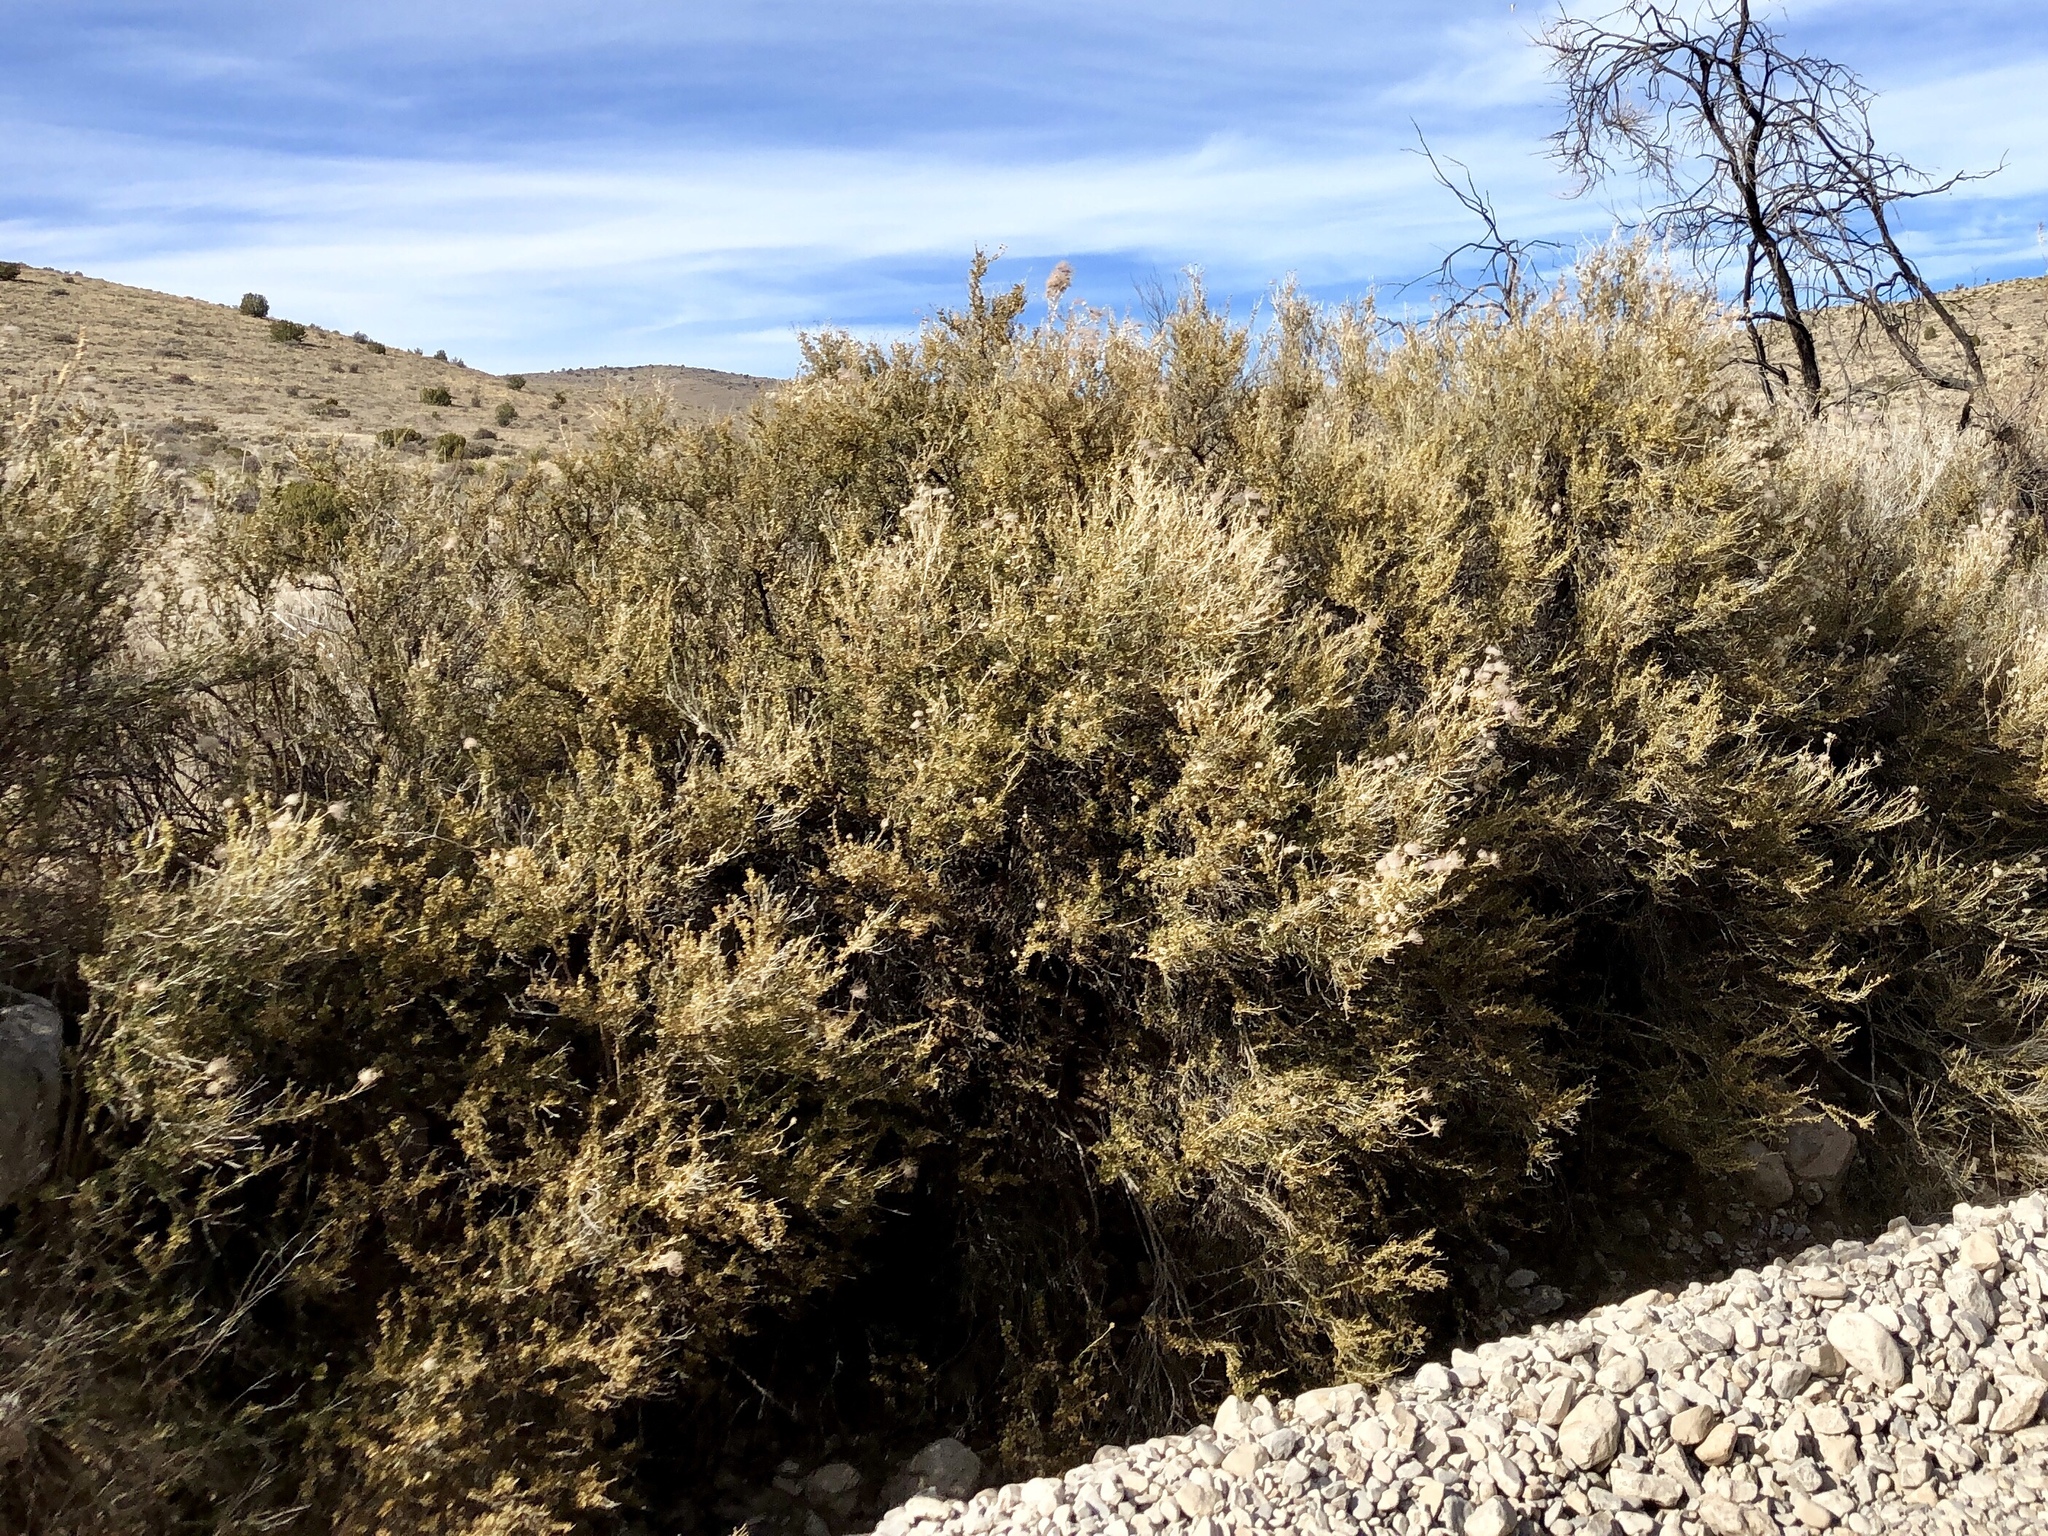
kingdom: Plantae
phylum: Tracheophyta
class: Magnoliopsida
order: Rosales
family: Rosaceae
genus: Fallugia
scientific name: Fallugia paradoxa
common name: Apache-plume
